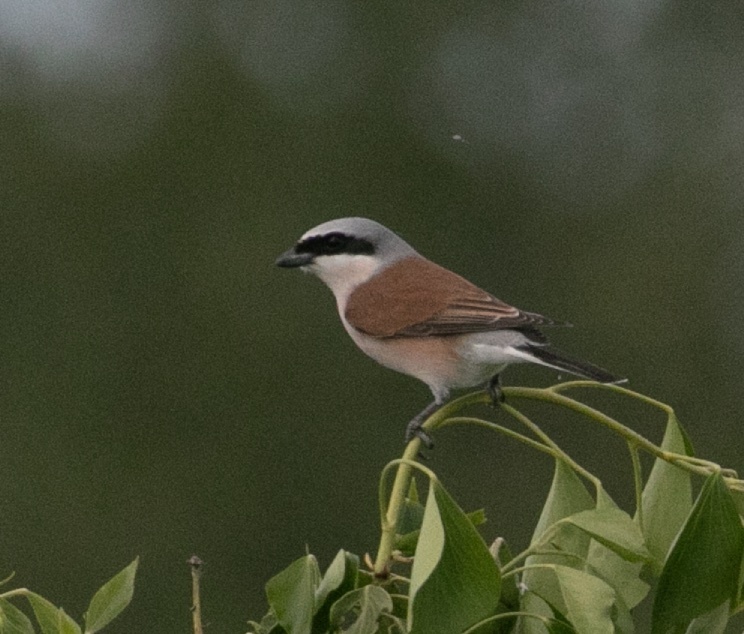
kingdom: Animalia
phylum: Chordata
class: Aves
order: Passeriformes
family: Laniidae
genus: Lanius
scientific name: Lanius collurio
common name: Red-backed shrike
